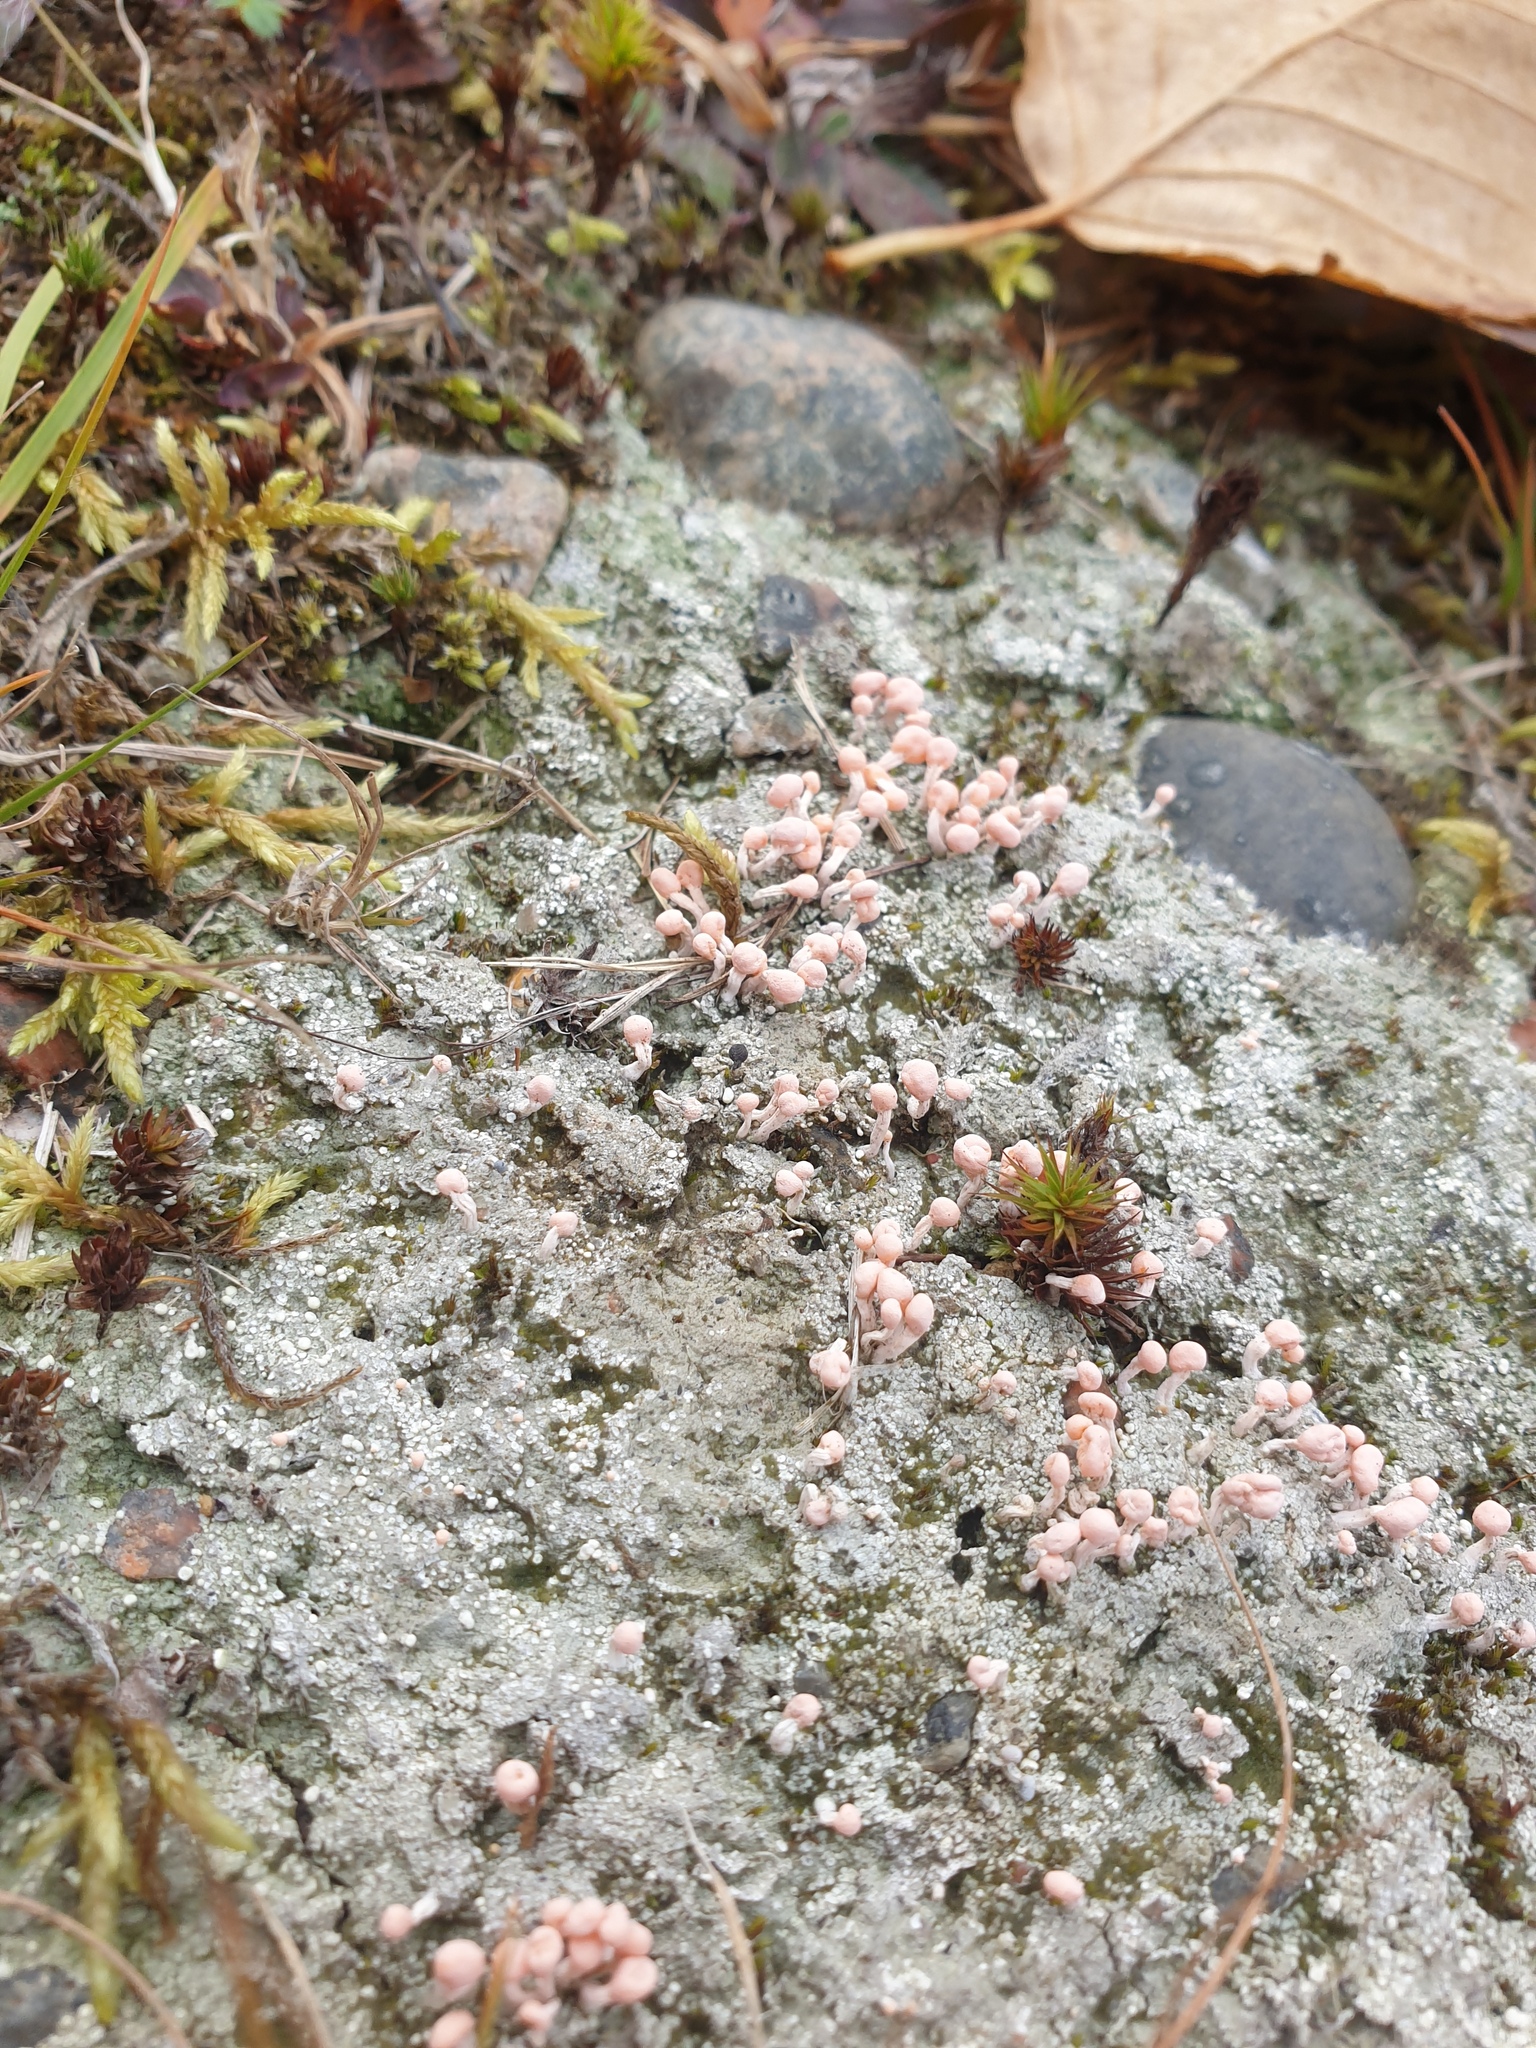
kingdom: Fungi
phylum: Ascomycota
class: Lecanoromycetes
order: Pertusariales
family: Icmadophilaceae
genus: Dibaeis
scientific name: Dibaeis baeomyces
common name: Pink earth lichen
